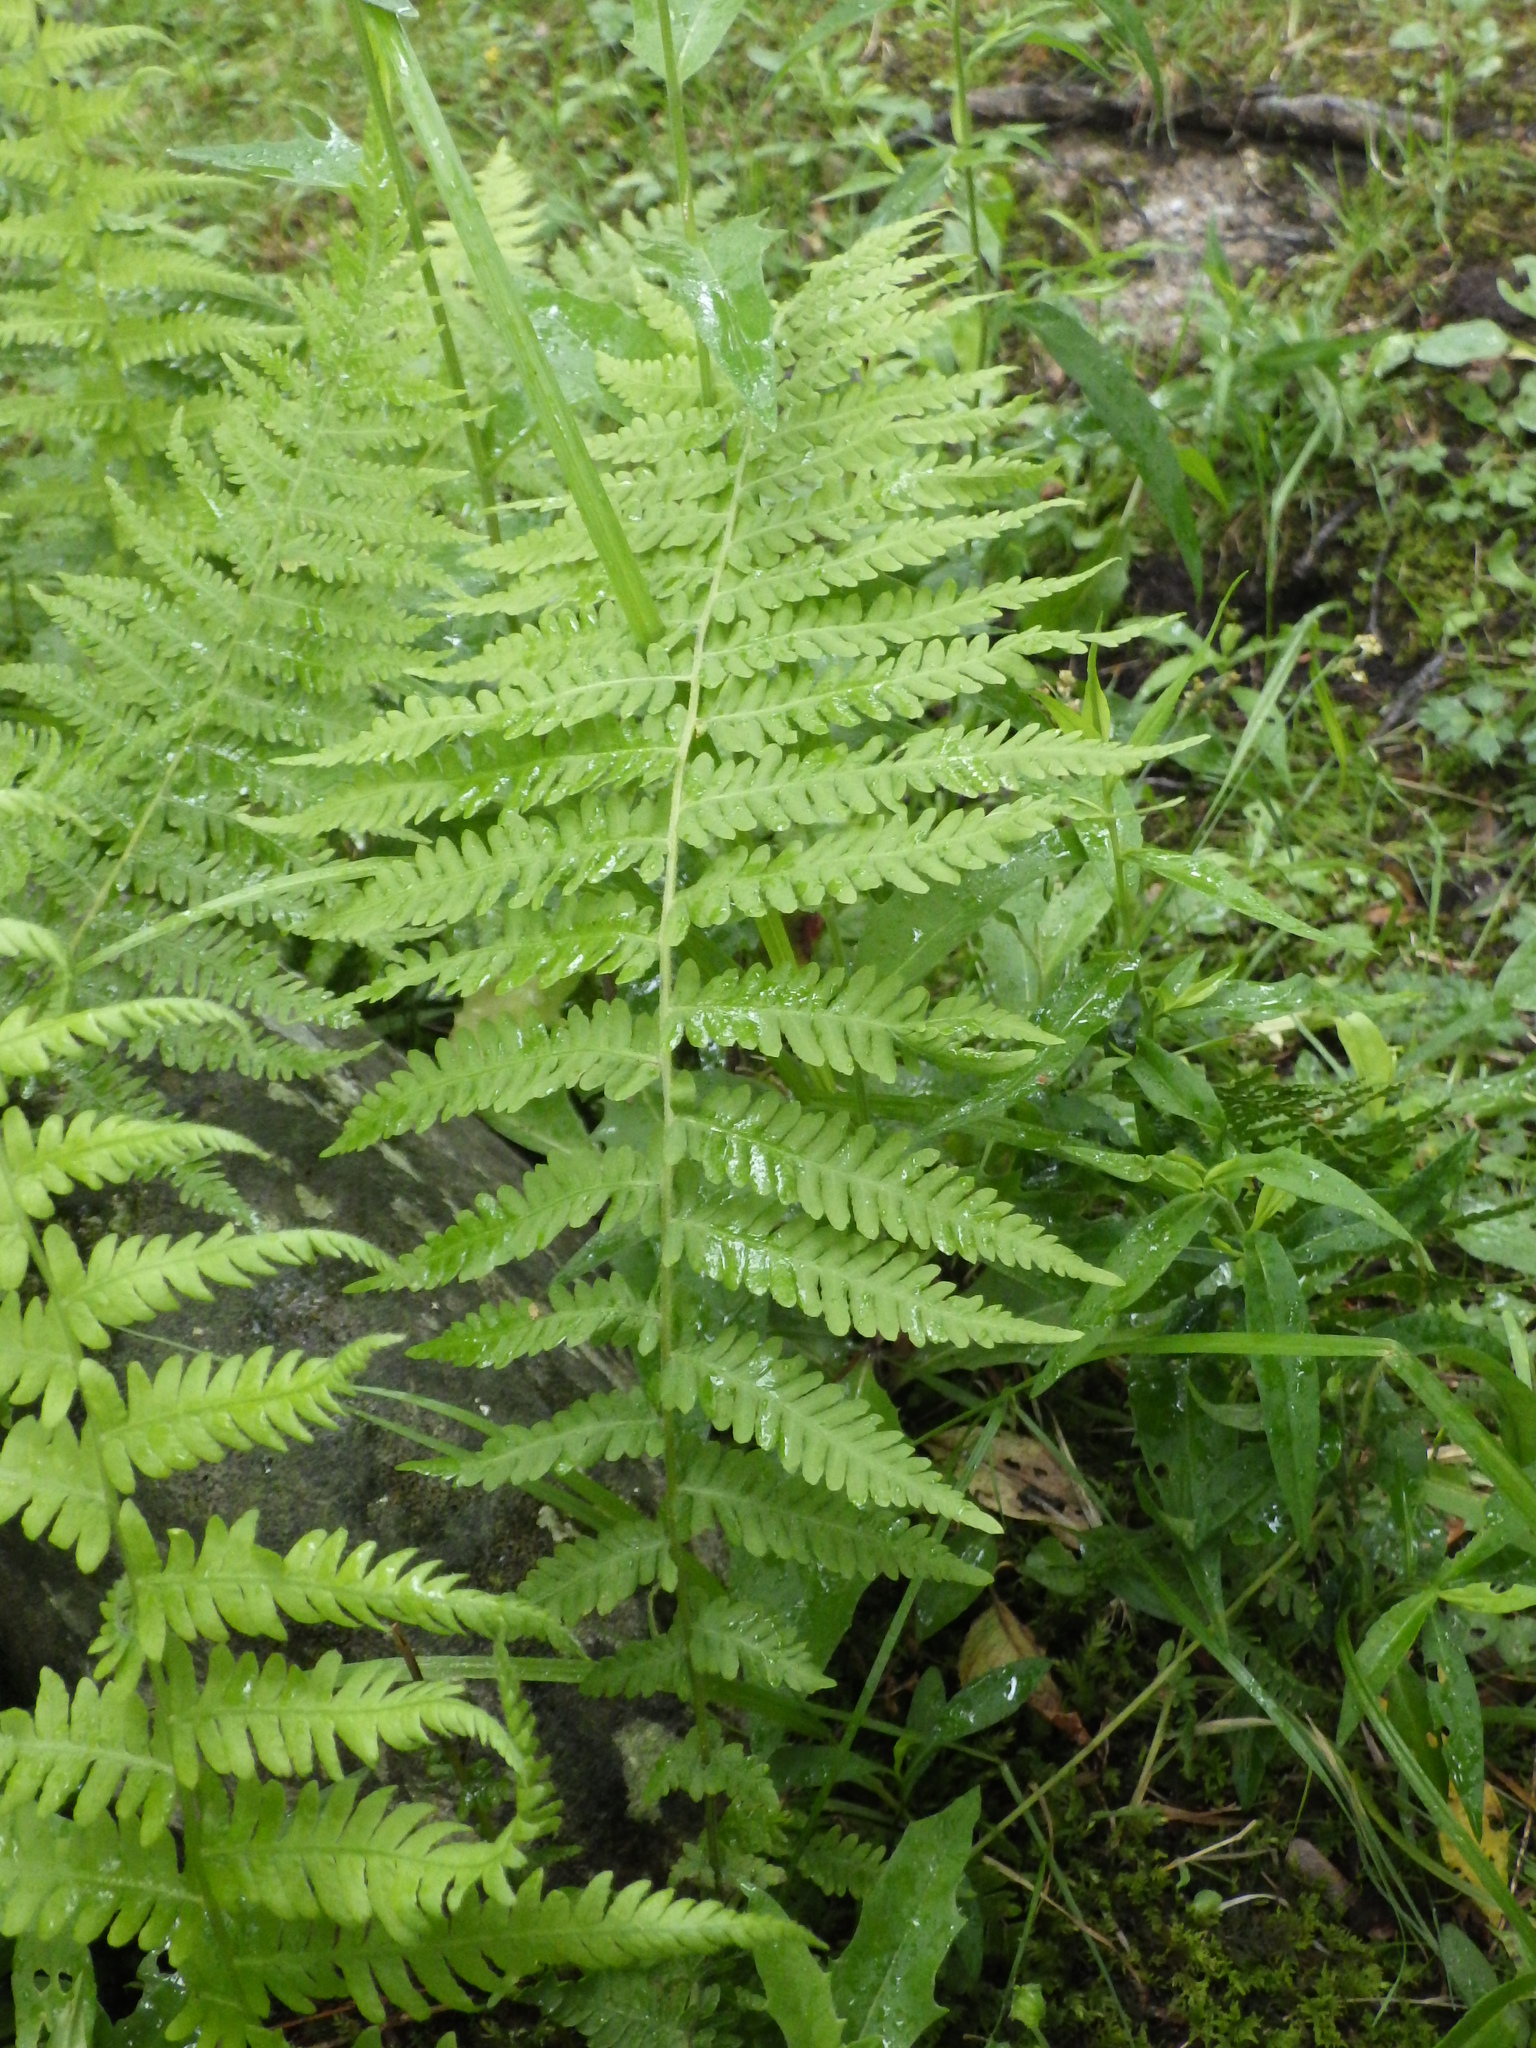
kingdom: Plantae
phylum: Tracheophyta
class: Polypodiopsida
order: Polypodiales
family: Thelypteridaceae
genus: Amauropelta
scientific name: Amauropelta noveboracensis
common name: New york fern
